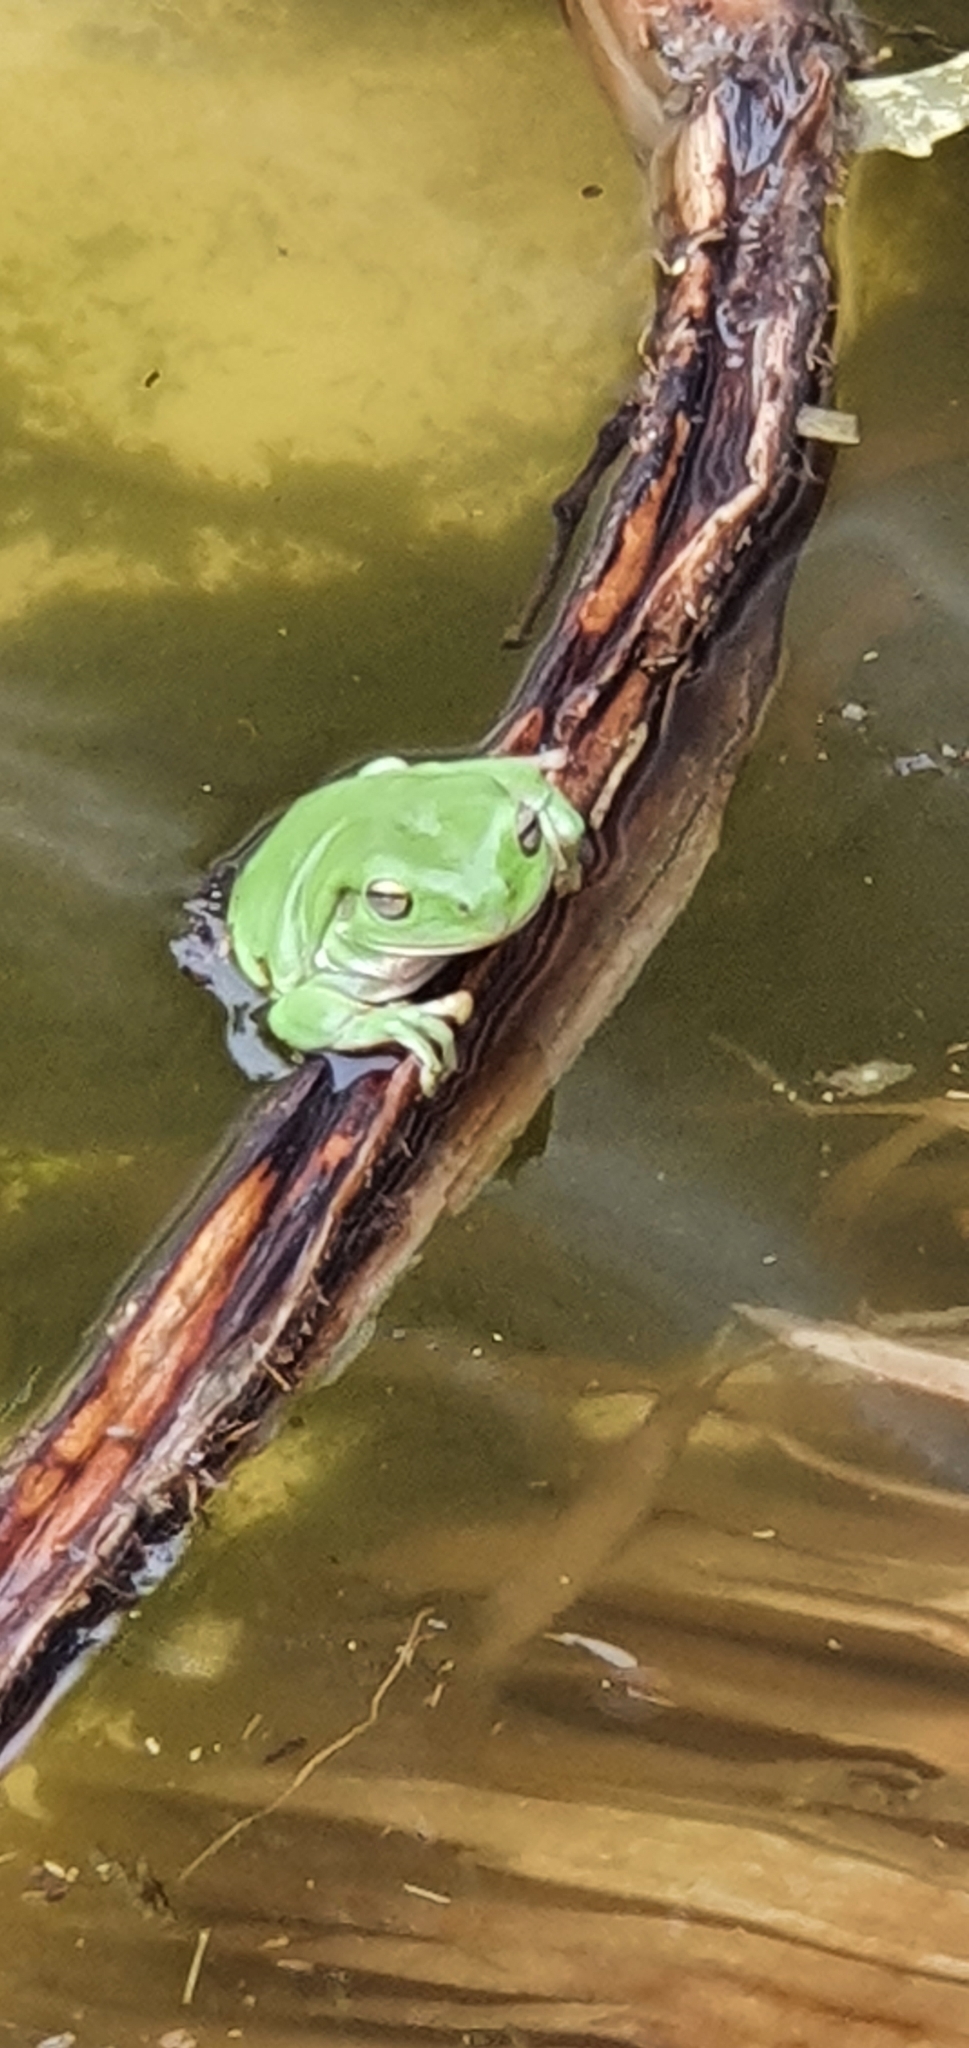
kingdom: Animalia
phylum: Chordata
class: Amphibia
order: Anura
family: Pelodryadidae
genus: Ranoidea
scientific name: Ranoidea caerulea
